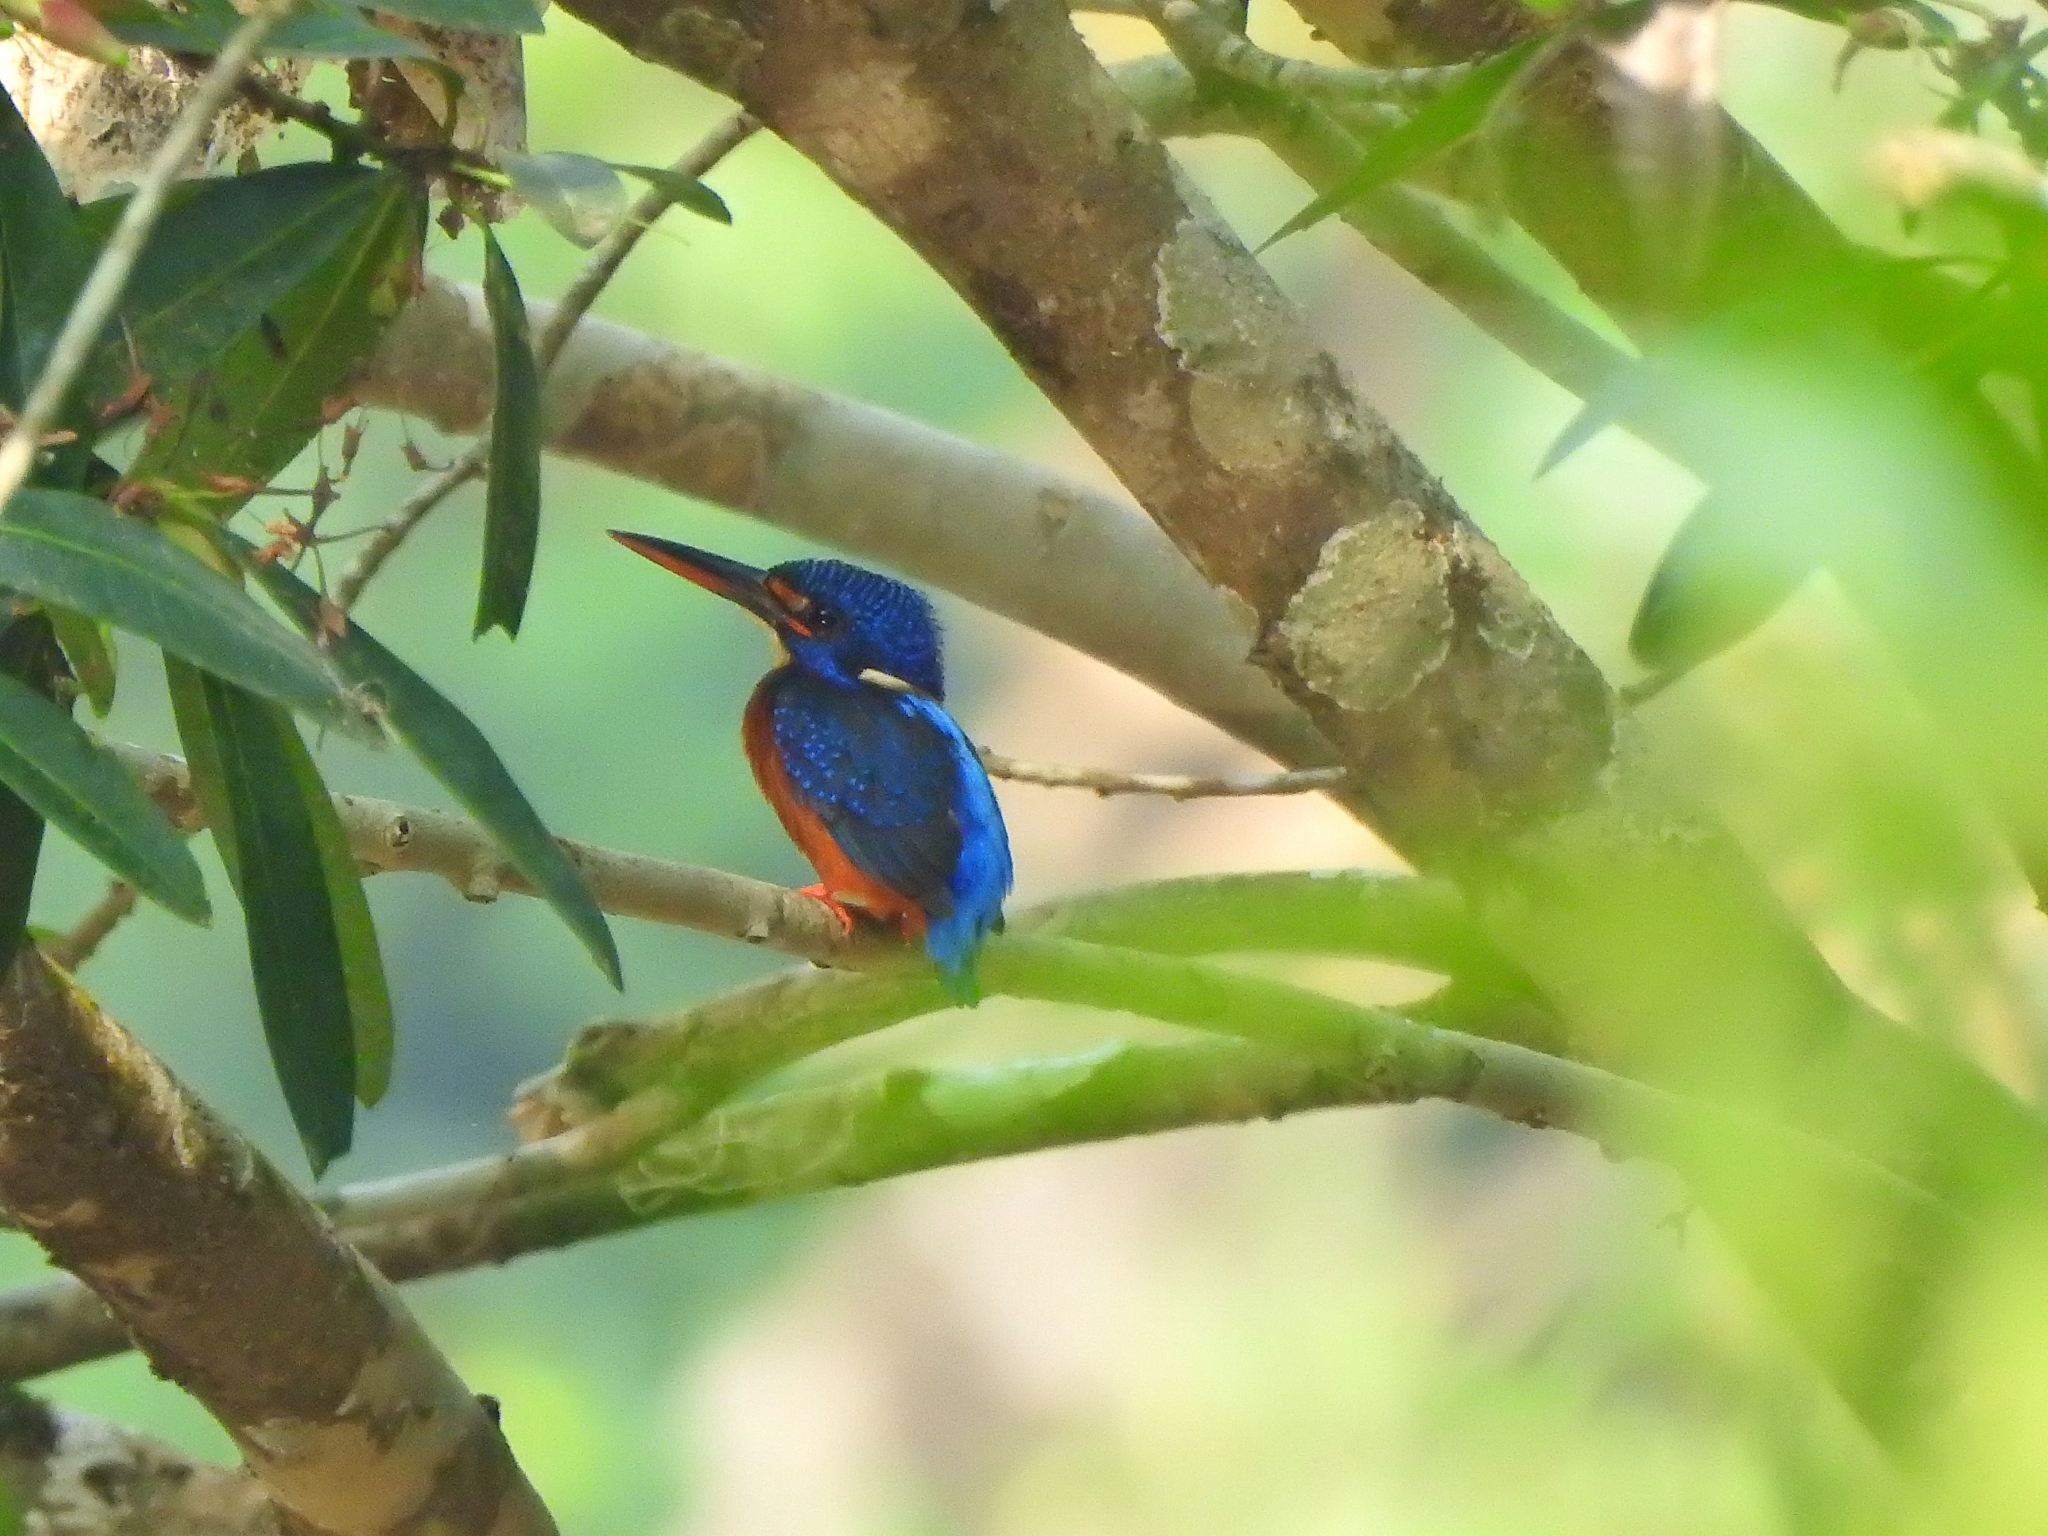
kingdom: Animalia
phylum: Chordata
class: Aves
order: Coraciiformes
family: Alcedinidae
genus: Alcedo
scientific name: Alcedo meninting
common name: Blue-eared kingfisher
